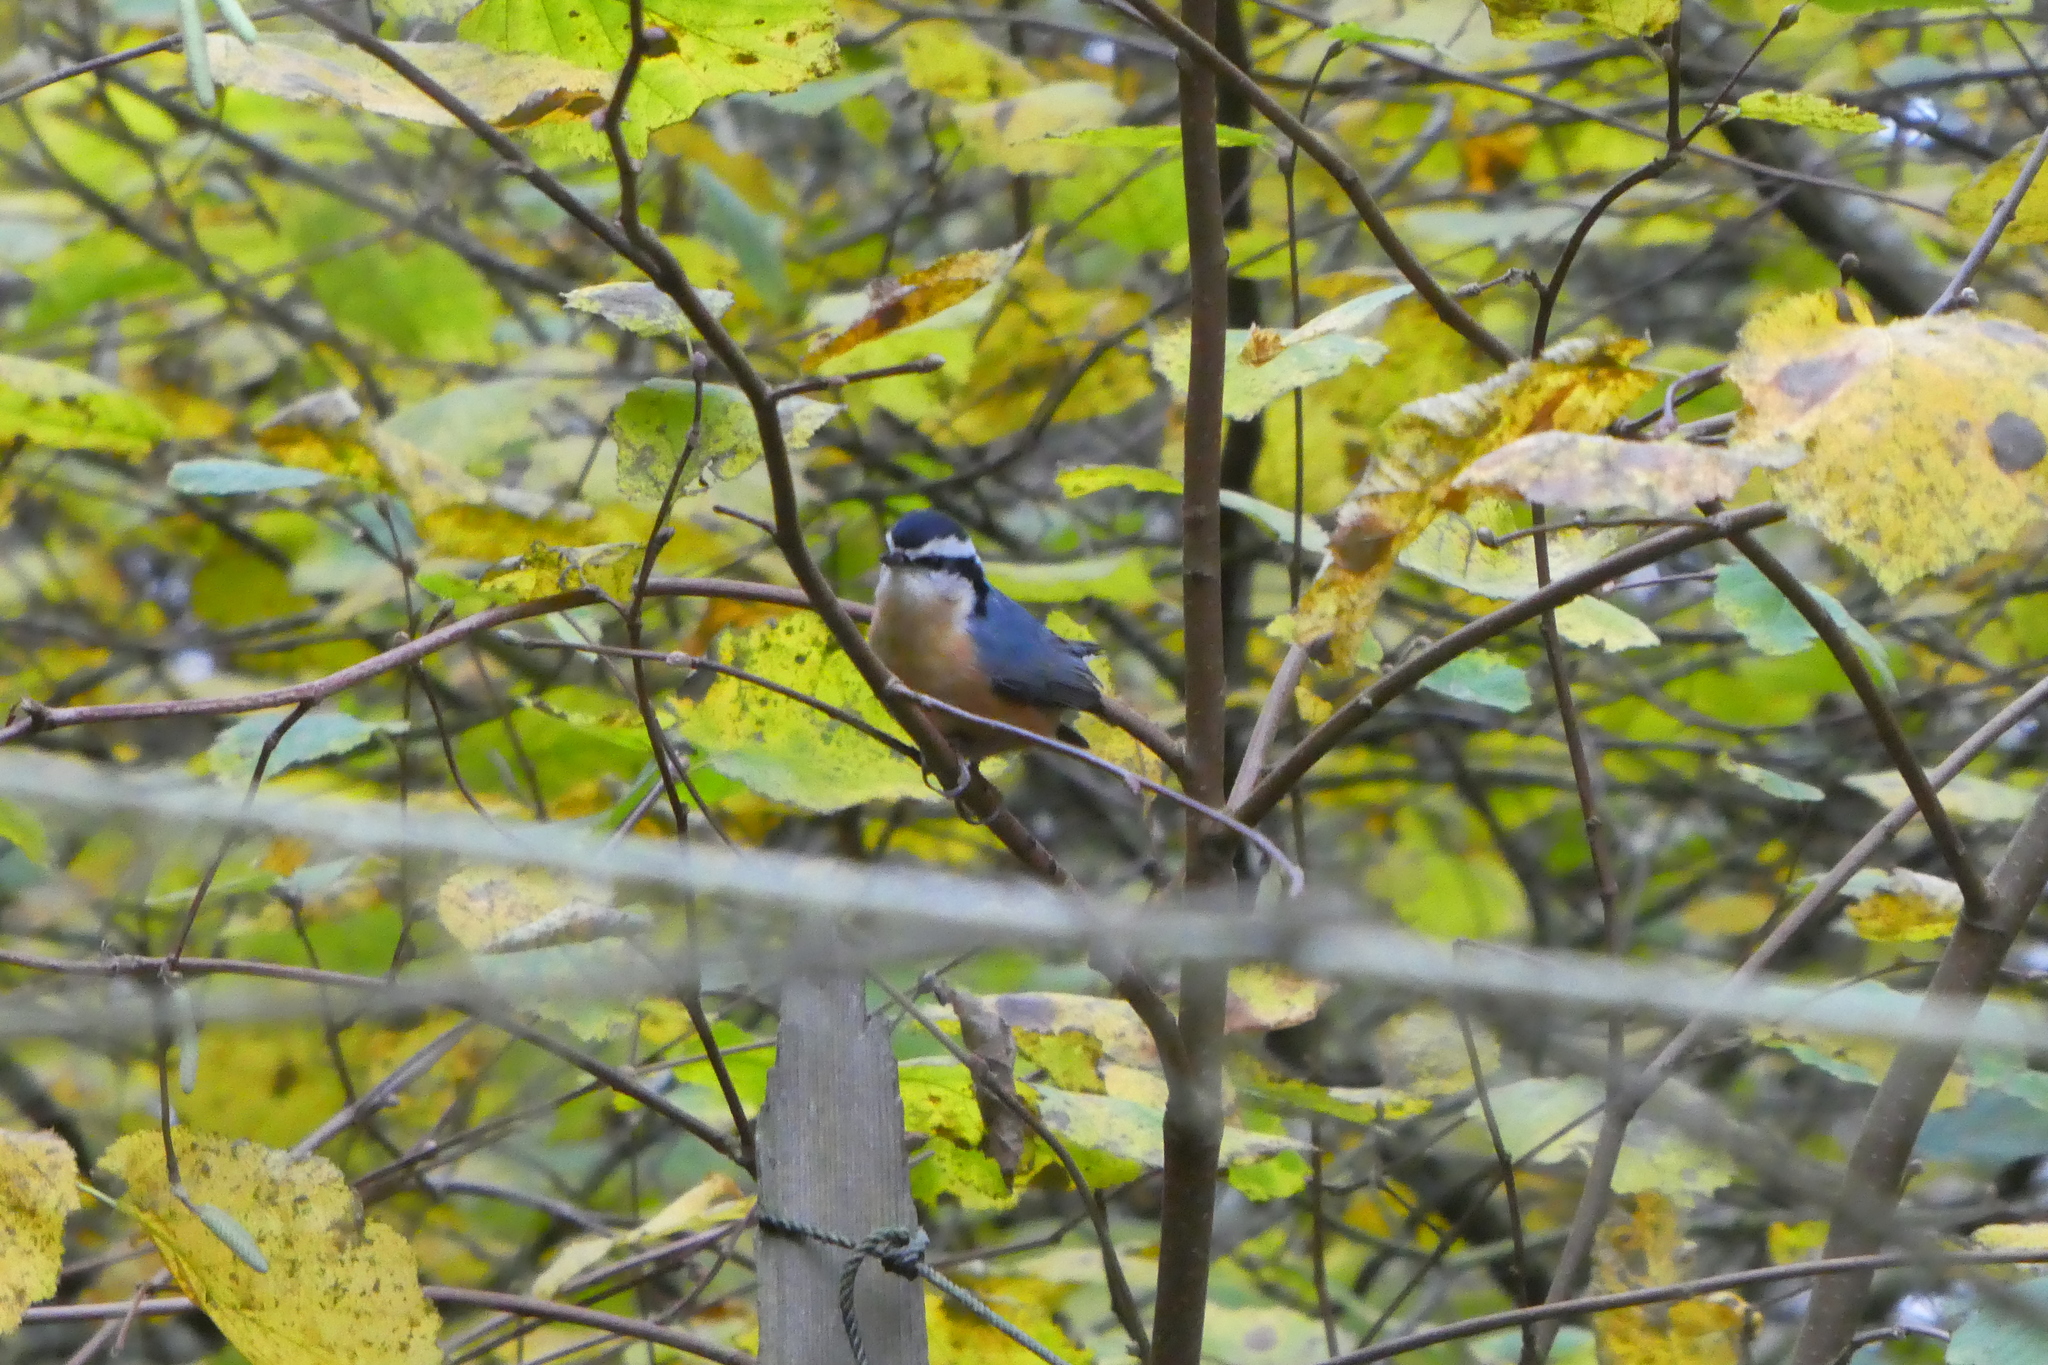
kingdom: Animalia
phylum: Chordata
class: Aves
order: Passeriformes
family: Sittidae
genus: Sitta
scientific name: Sitta canadensis
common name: Red-breasted nuthatch
